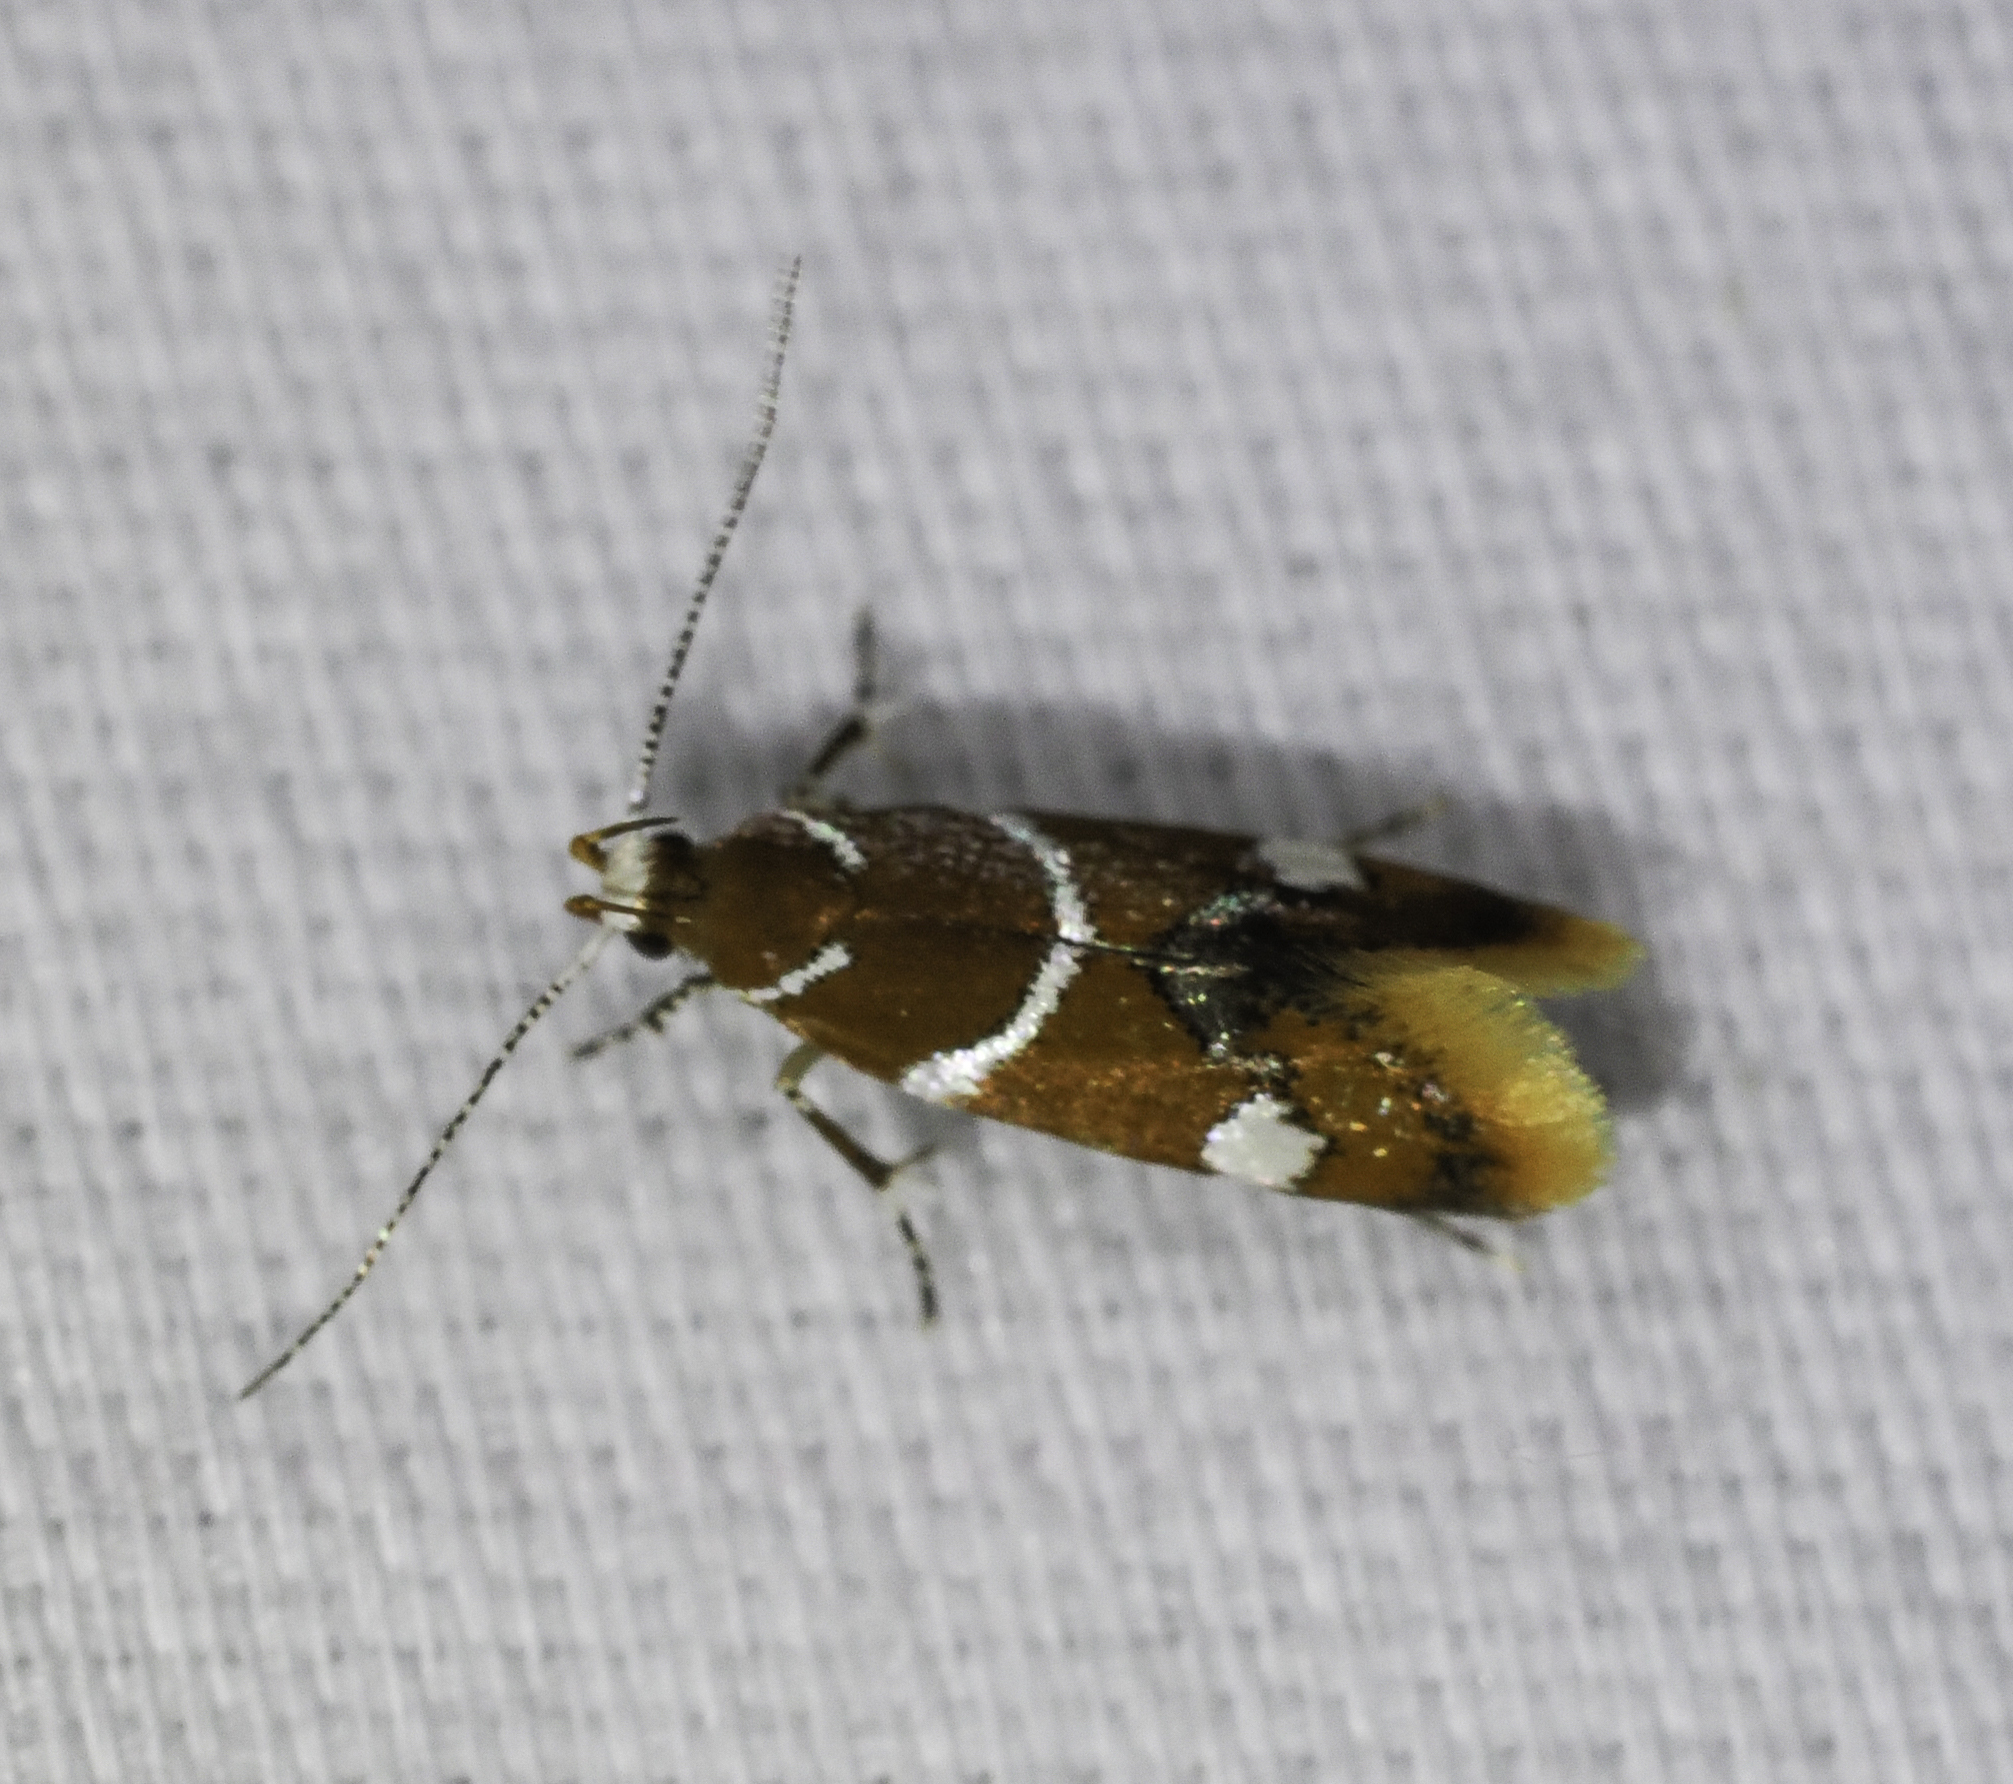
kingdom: Animalia
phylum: Arthropoda
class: Insecta
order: Lepidoptera
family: Oecophoridae
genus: Promalactis
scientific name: Promalactis suzukiella
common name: Moth
